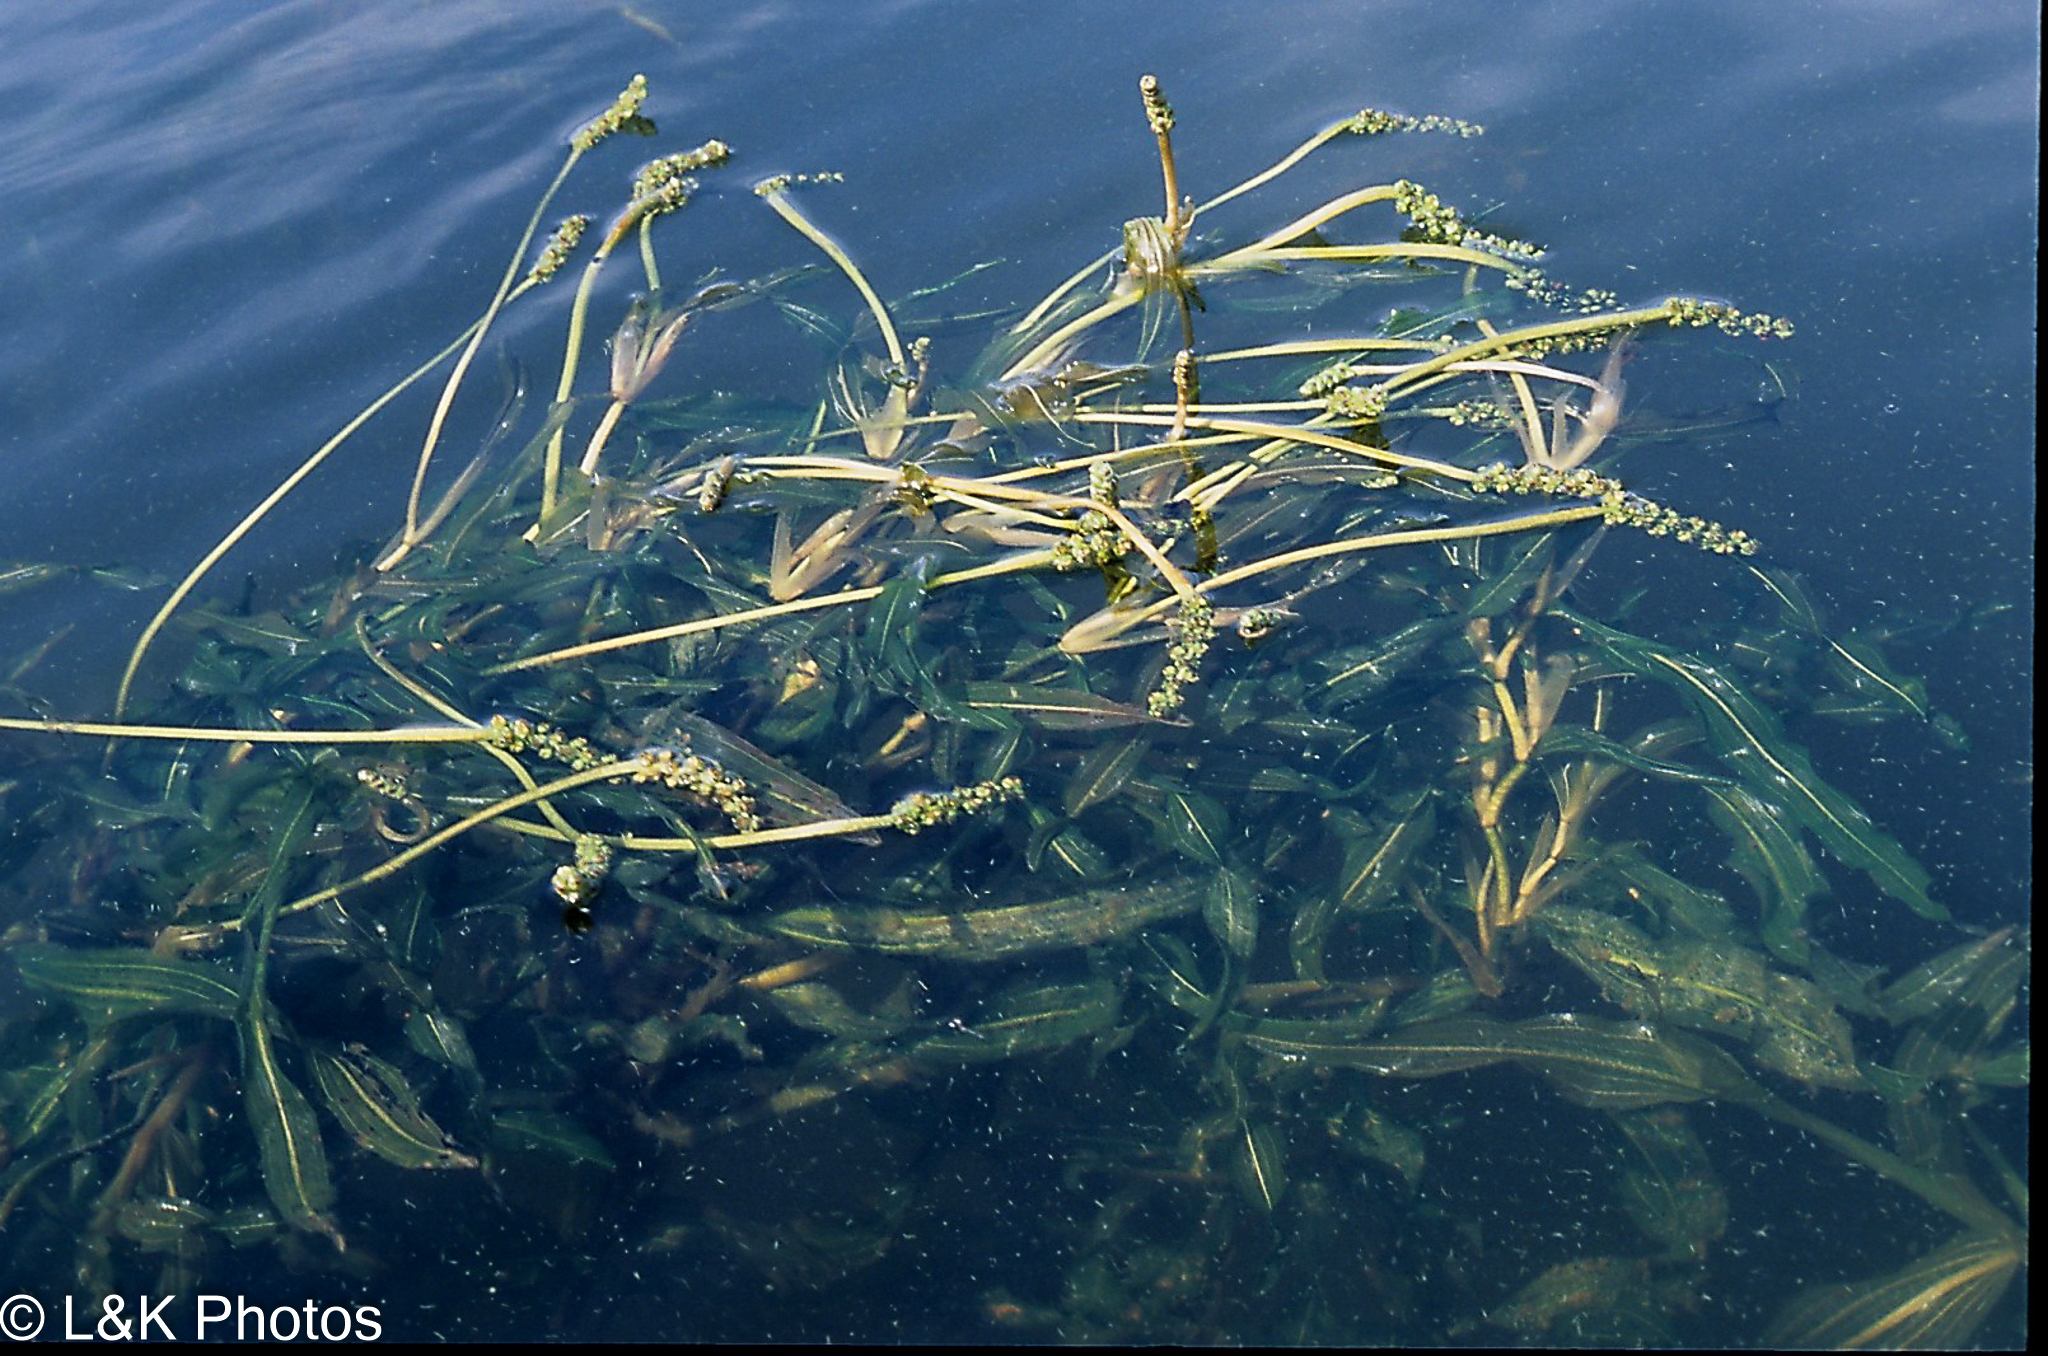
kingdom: Plantae
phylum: Tracheophyta
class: Liliopsida
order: Alismatales
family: Potamogetonaceae
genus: Potamogeton
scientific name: Potamogeton praelongus
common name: Long-stalked pondweed
